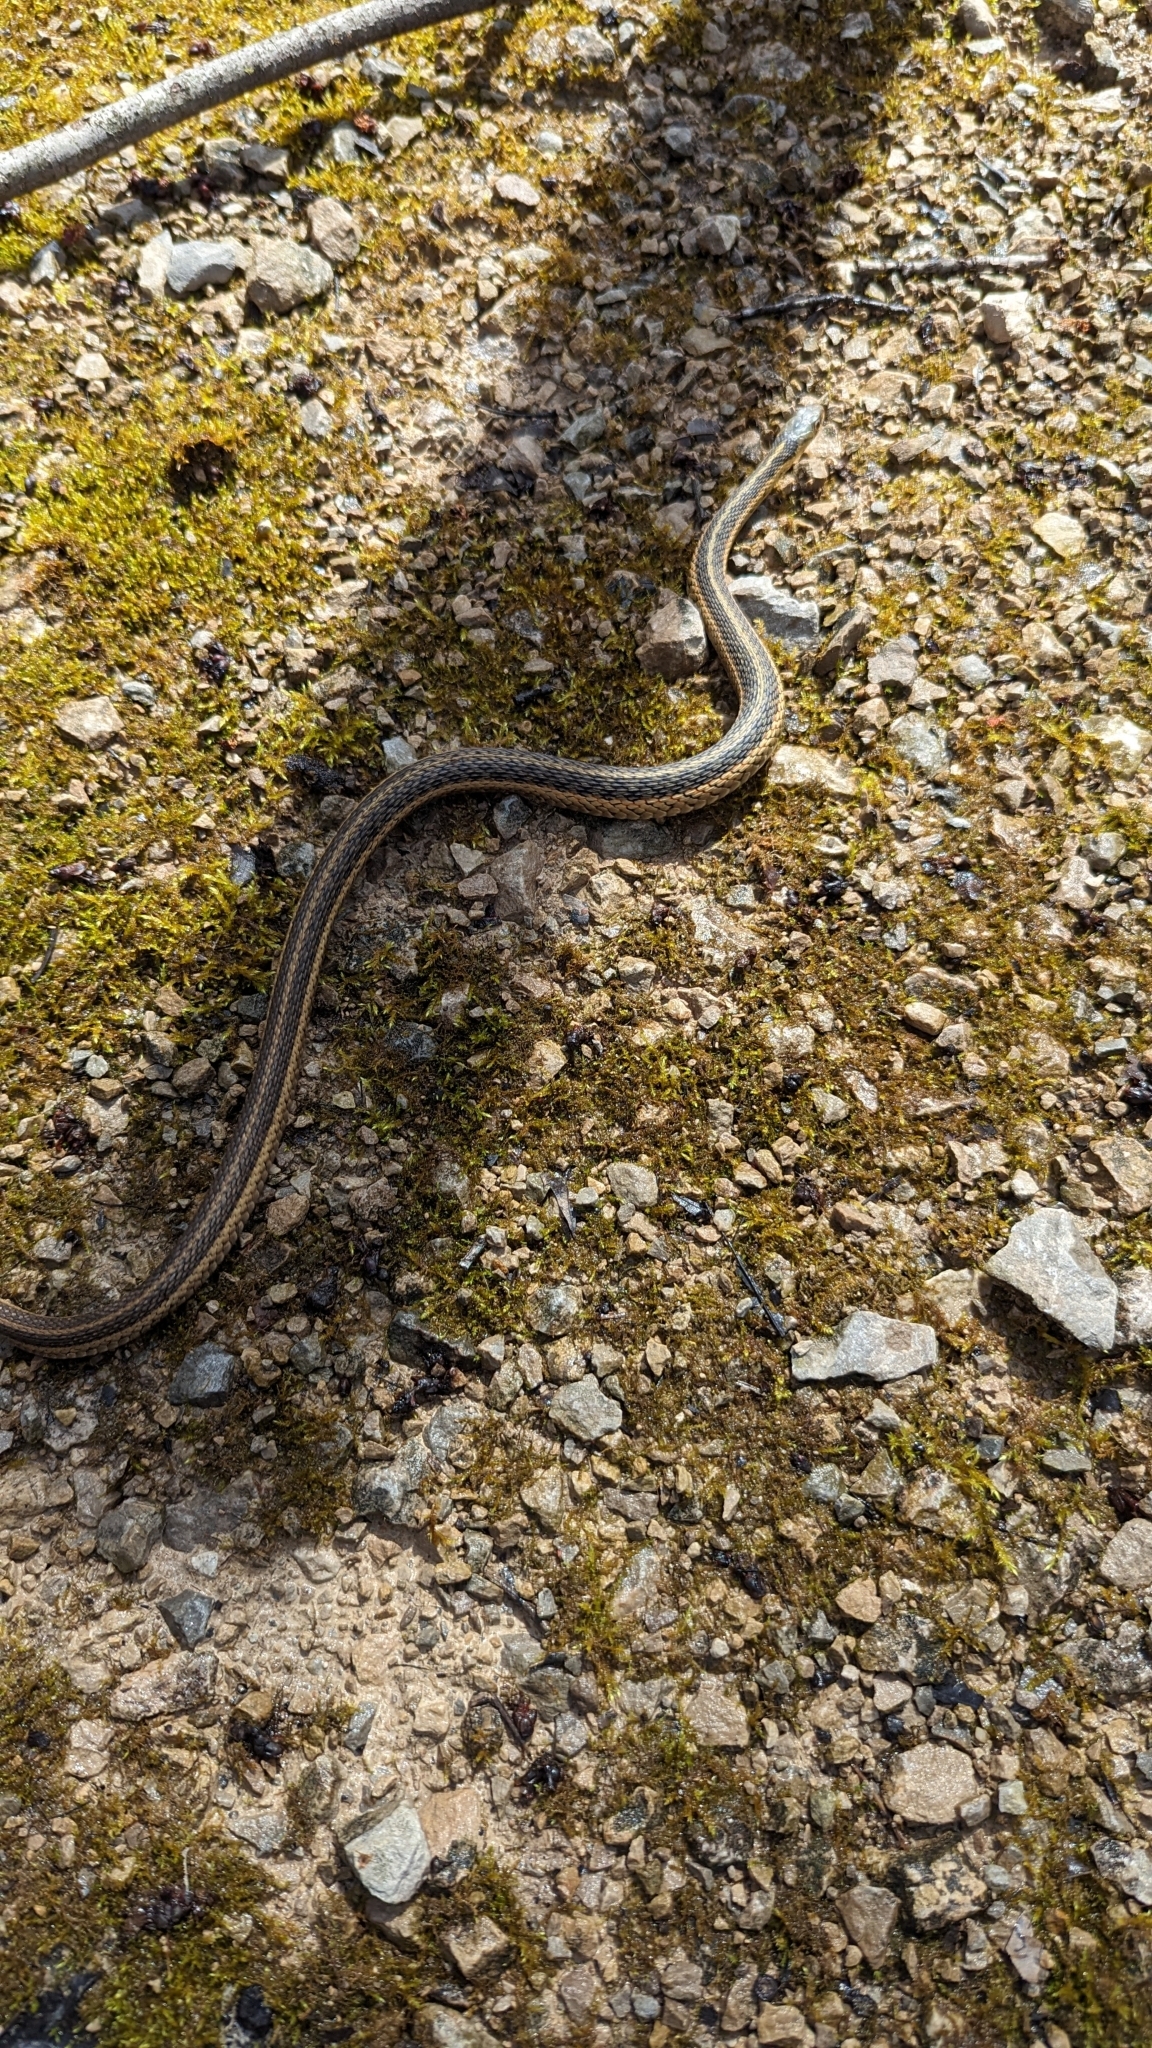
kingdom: Animalia
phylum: Chordata
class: Squamata
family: Colubridae
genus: Thamnophis
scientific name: Thamnophis sirtalis
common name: Common garter snake
